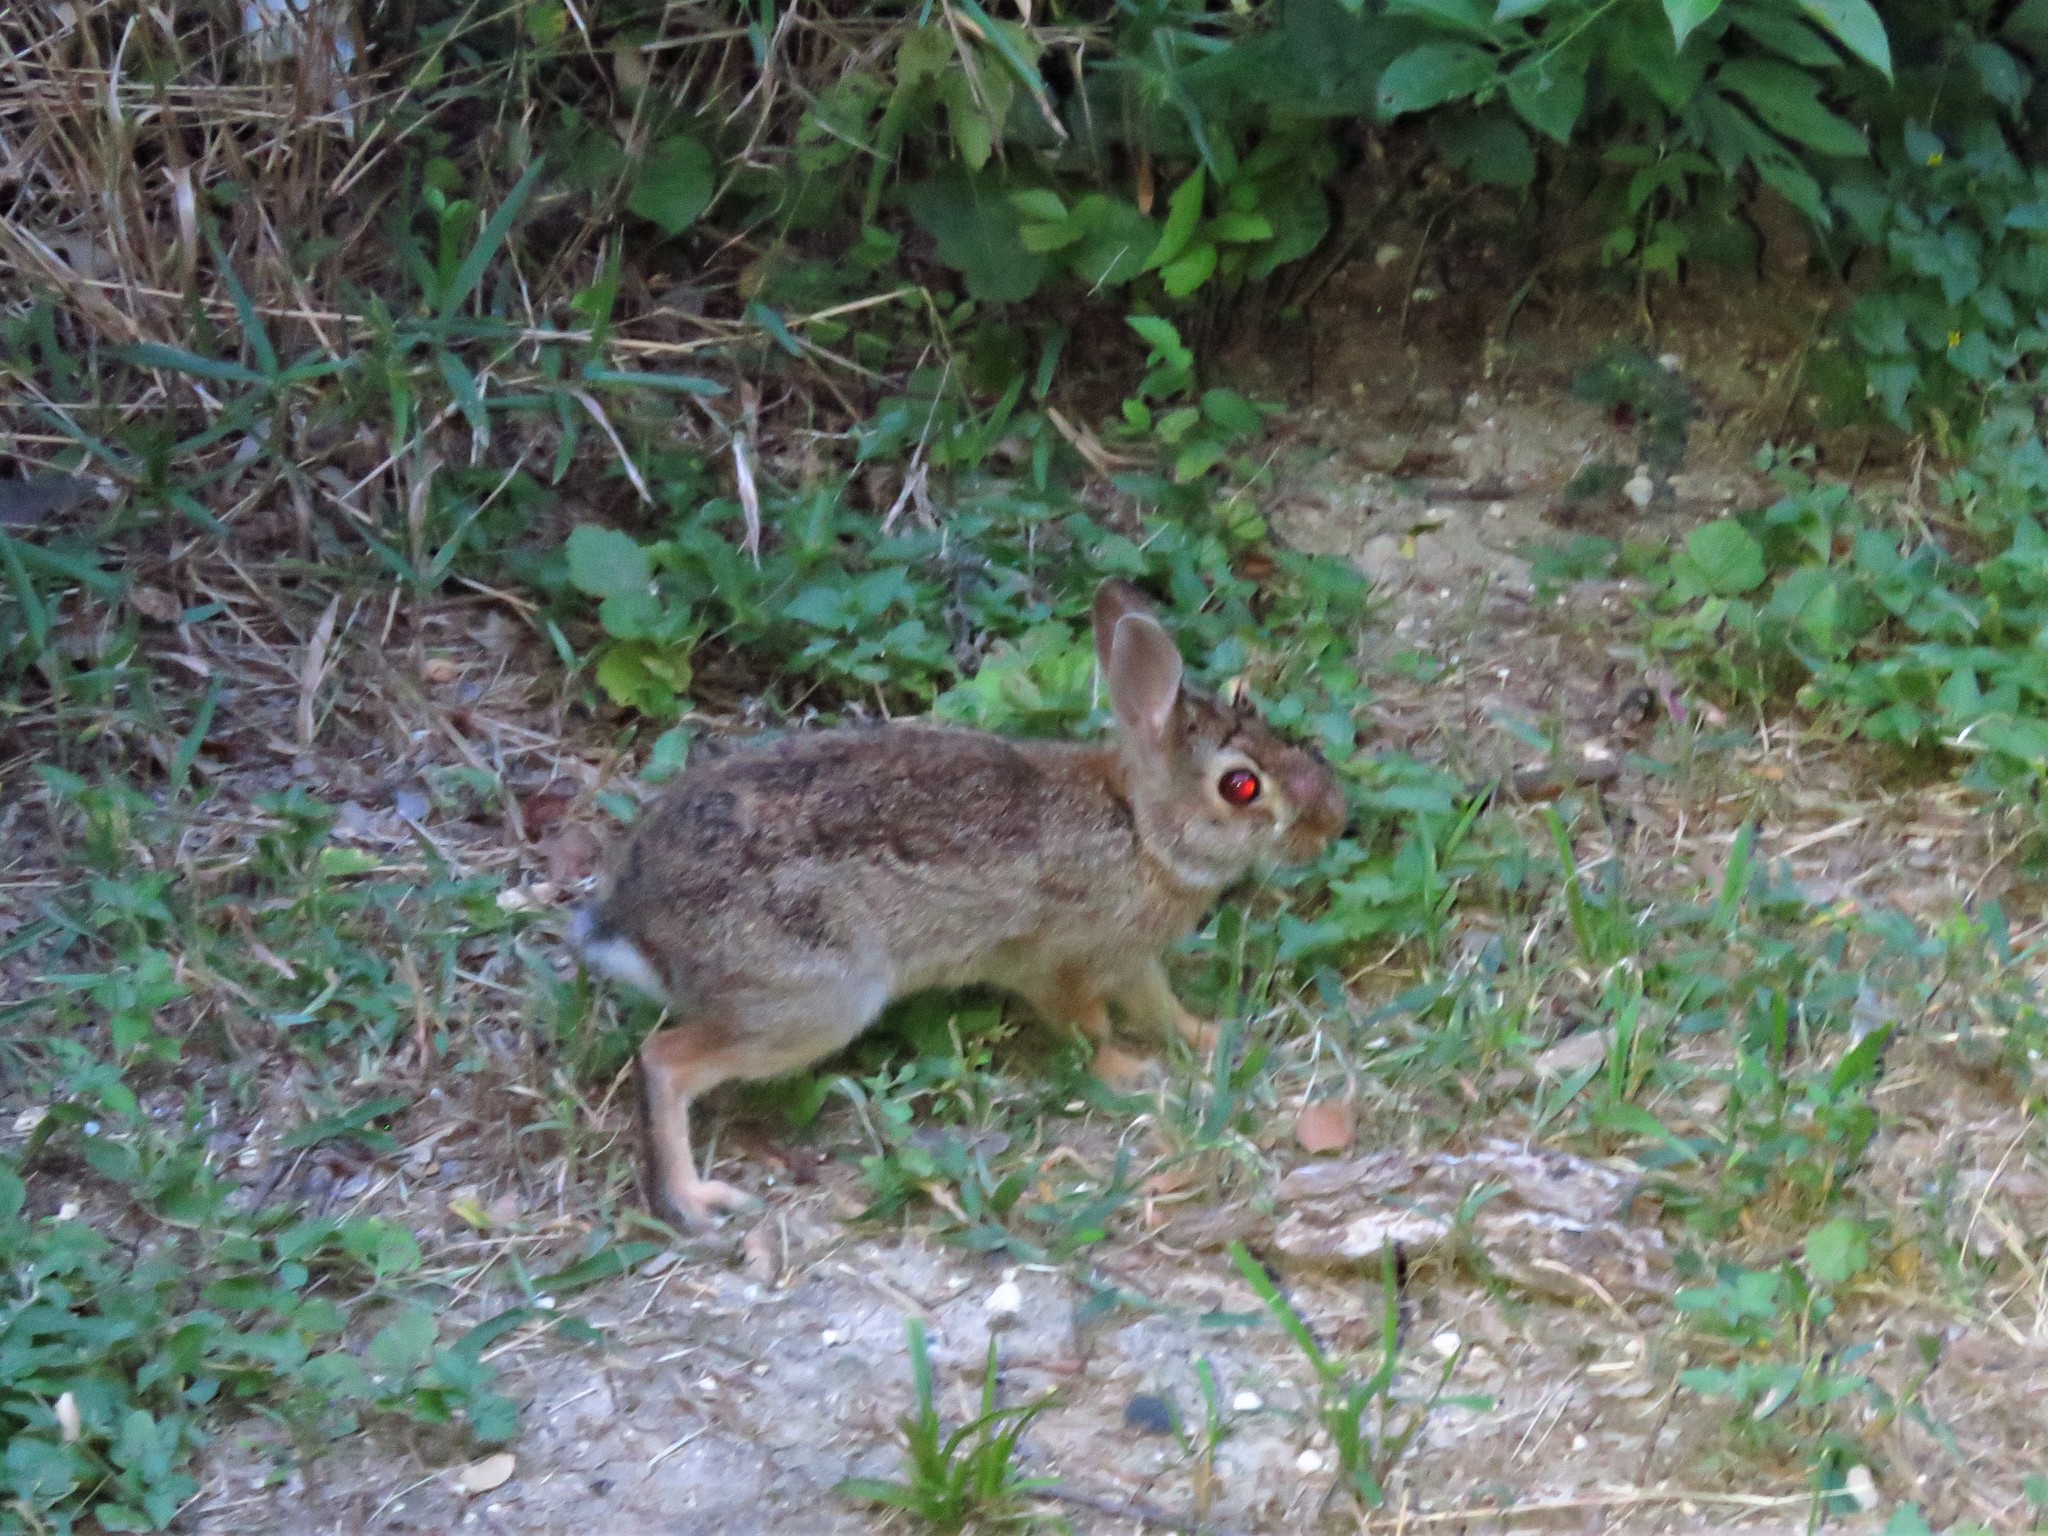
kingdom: Animalia
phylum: Chordata
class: Mammalia
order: Lagomorpha
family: Leporidae
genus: Sylvilagus
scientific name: Sylvilagus floridanus
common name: Eastern cottontail
